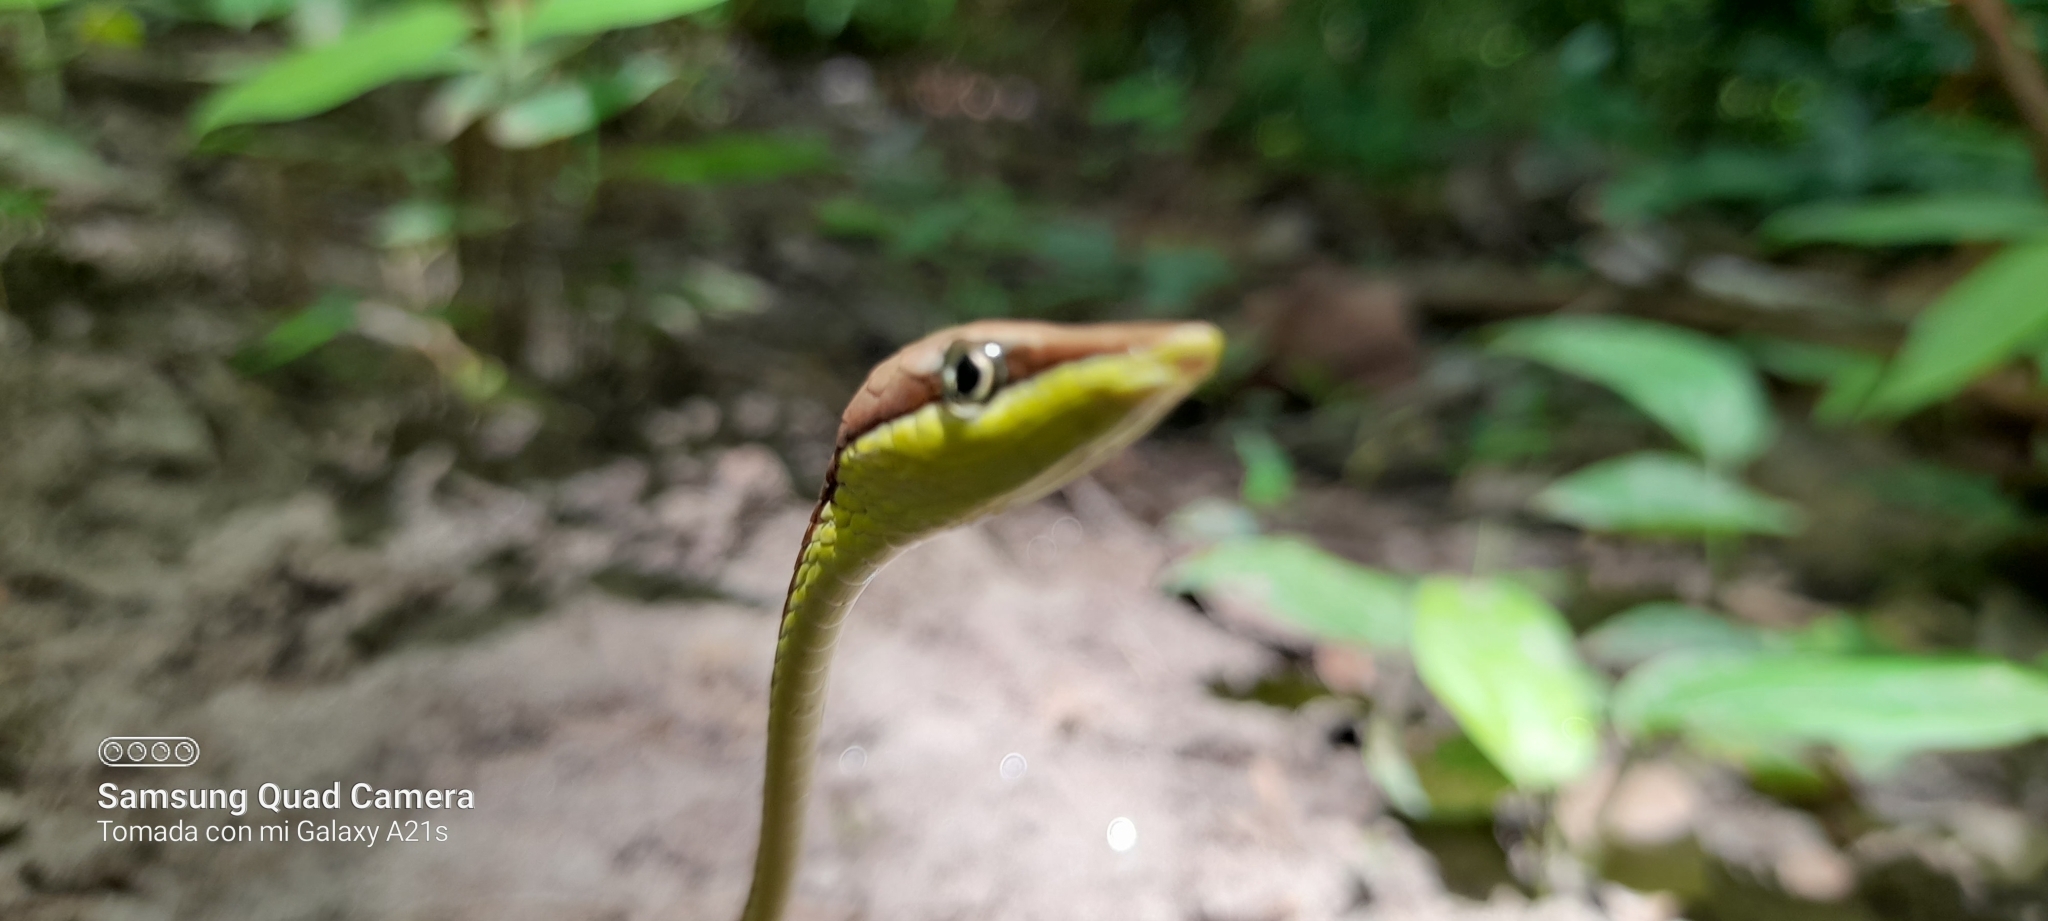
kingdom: Animalia
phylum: Chordata
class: Squamata
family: Colubridae
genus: Oxybelis
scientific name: Oxybelis vittatus
